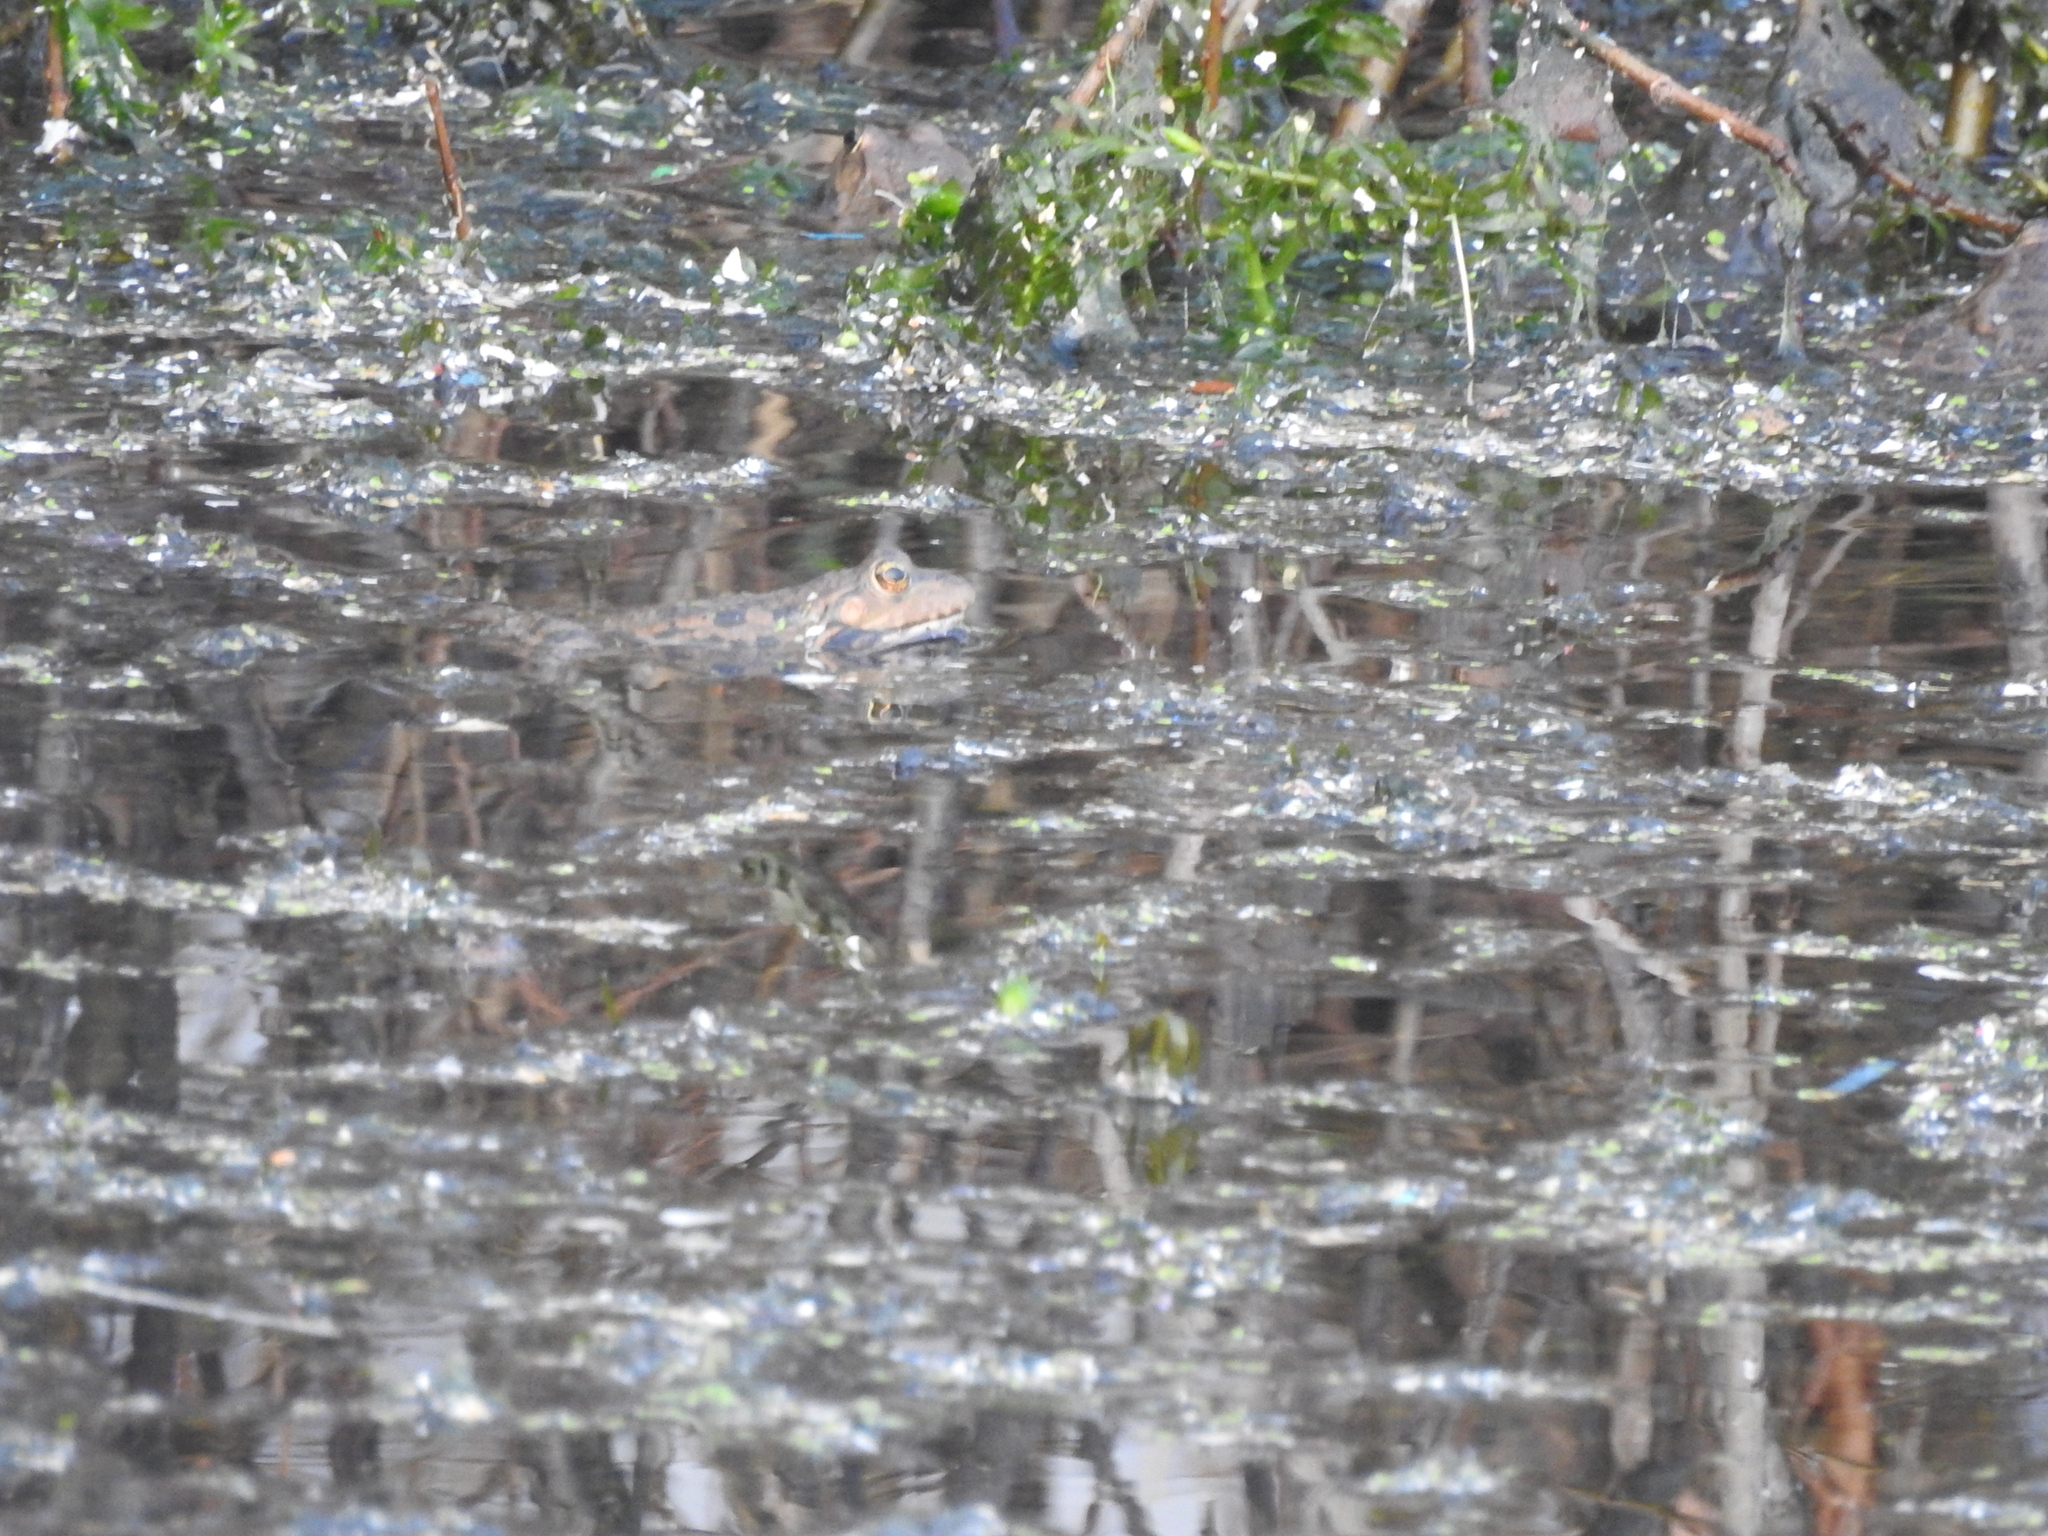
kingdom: Animalia
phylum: Chordata
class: Amphibia
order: Anura
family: Ranidae
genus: Pelophylax
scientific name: Pelophylax ridibundus
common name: Marsh frog
